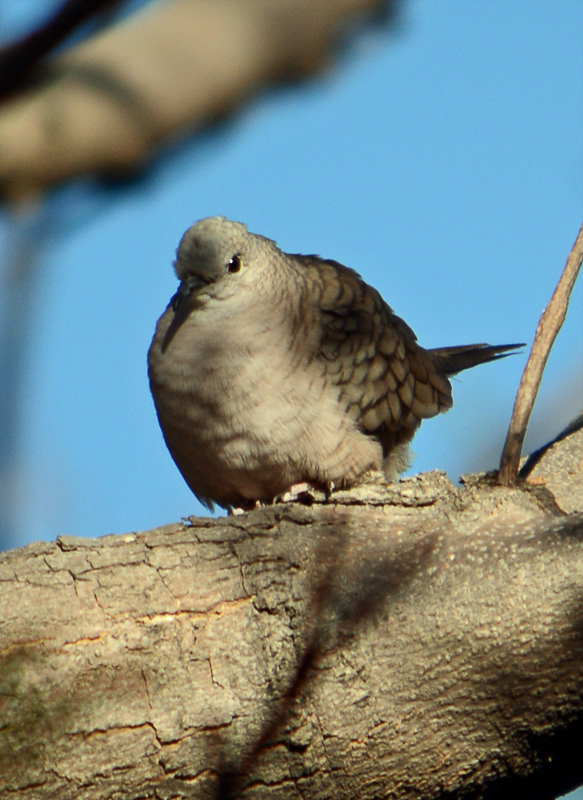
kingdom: Animalia
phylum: Chordata
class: Aves
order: Columbiformes
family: Columbidae
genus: Columbina
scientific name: Columbina inca
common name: Inca dove
